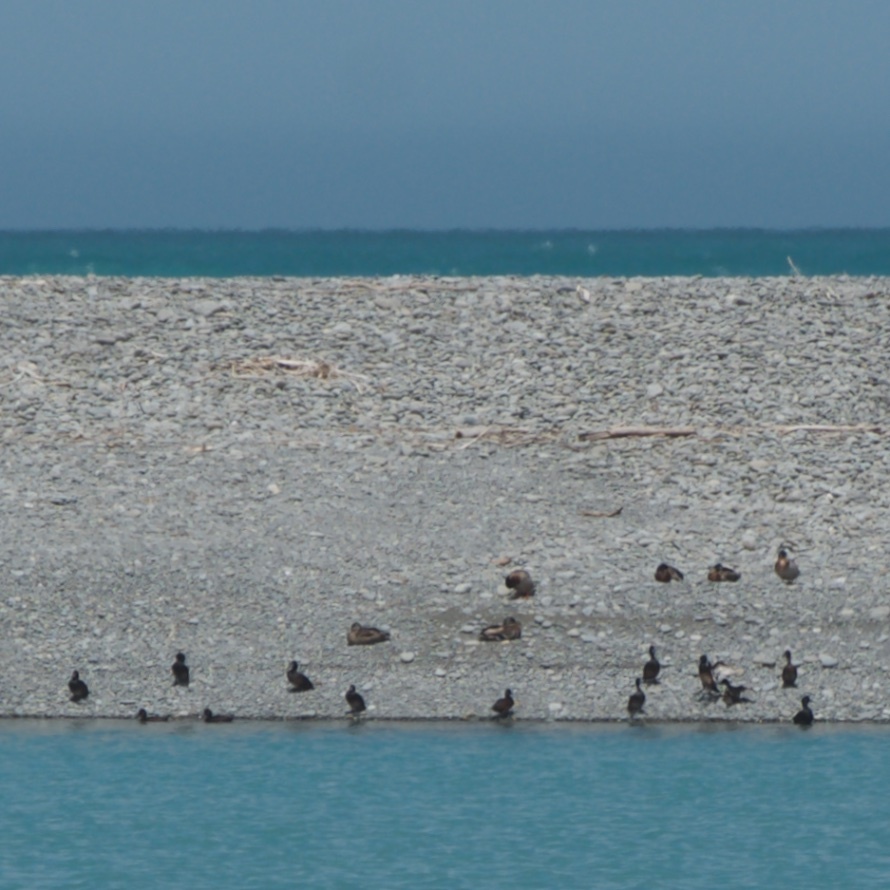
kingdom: Animalia
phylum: Chordata
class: Aves
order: Anseriformes
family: Anatidae
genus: Aythya
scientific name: Aythya novaeseelandiae
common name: New zealand scaup
